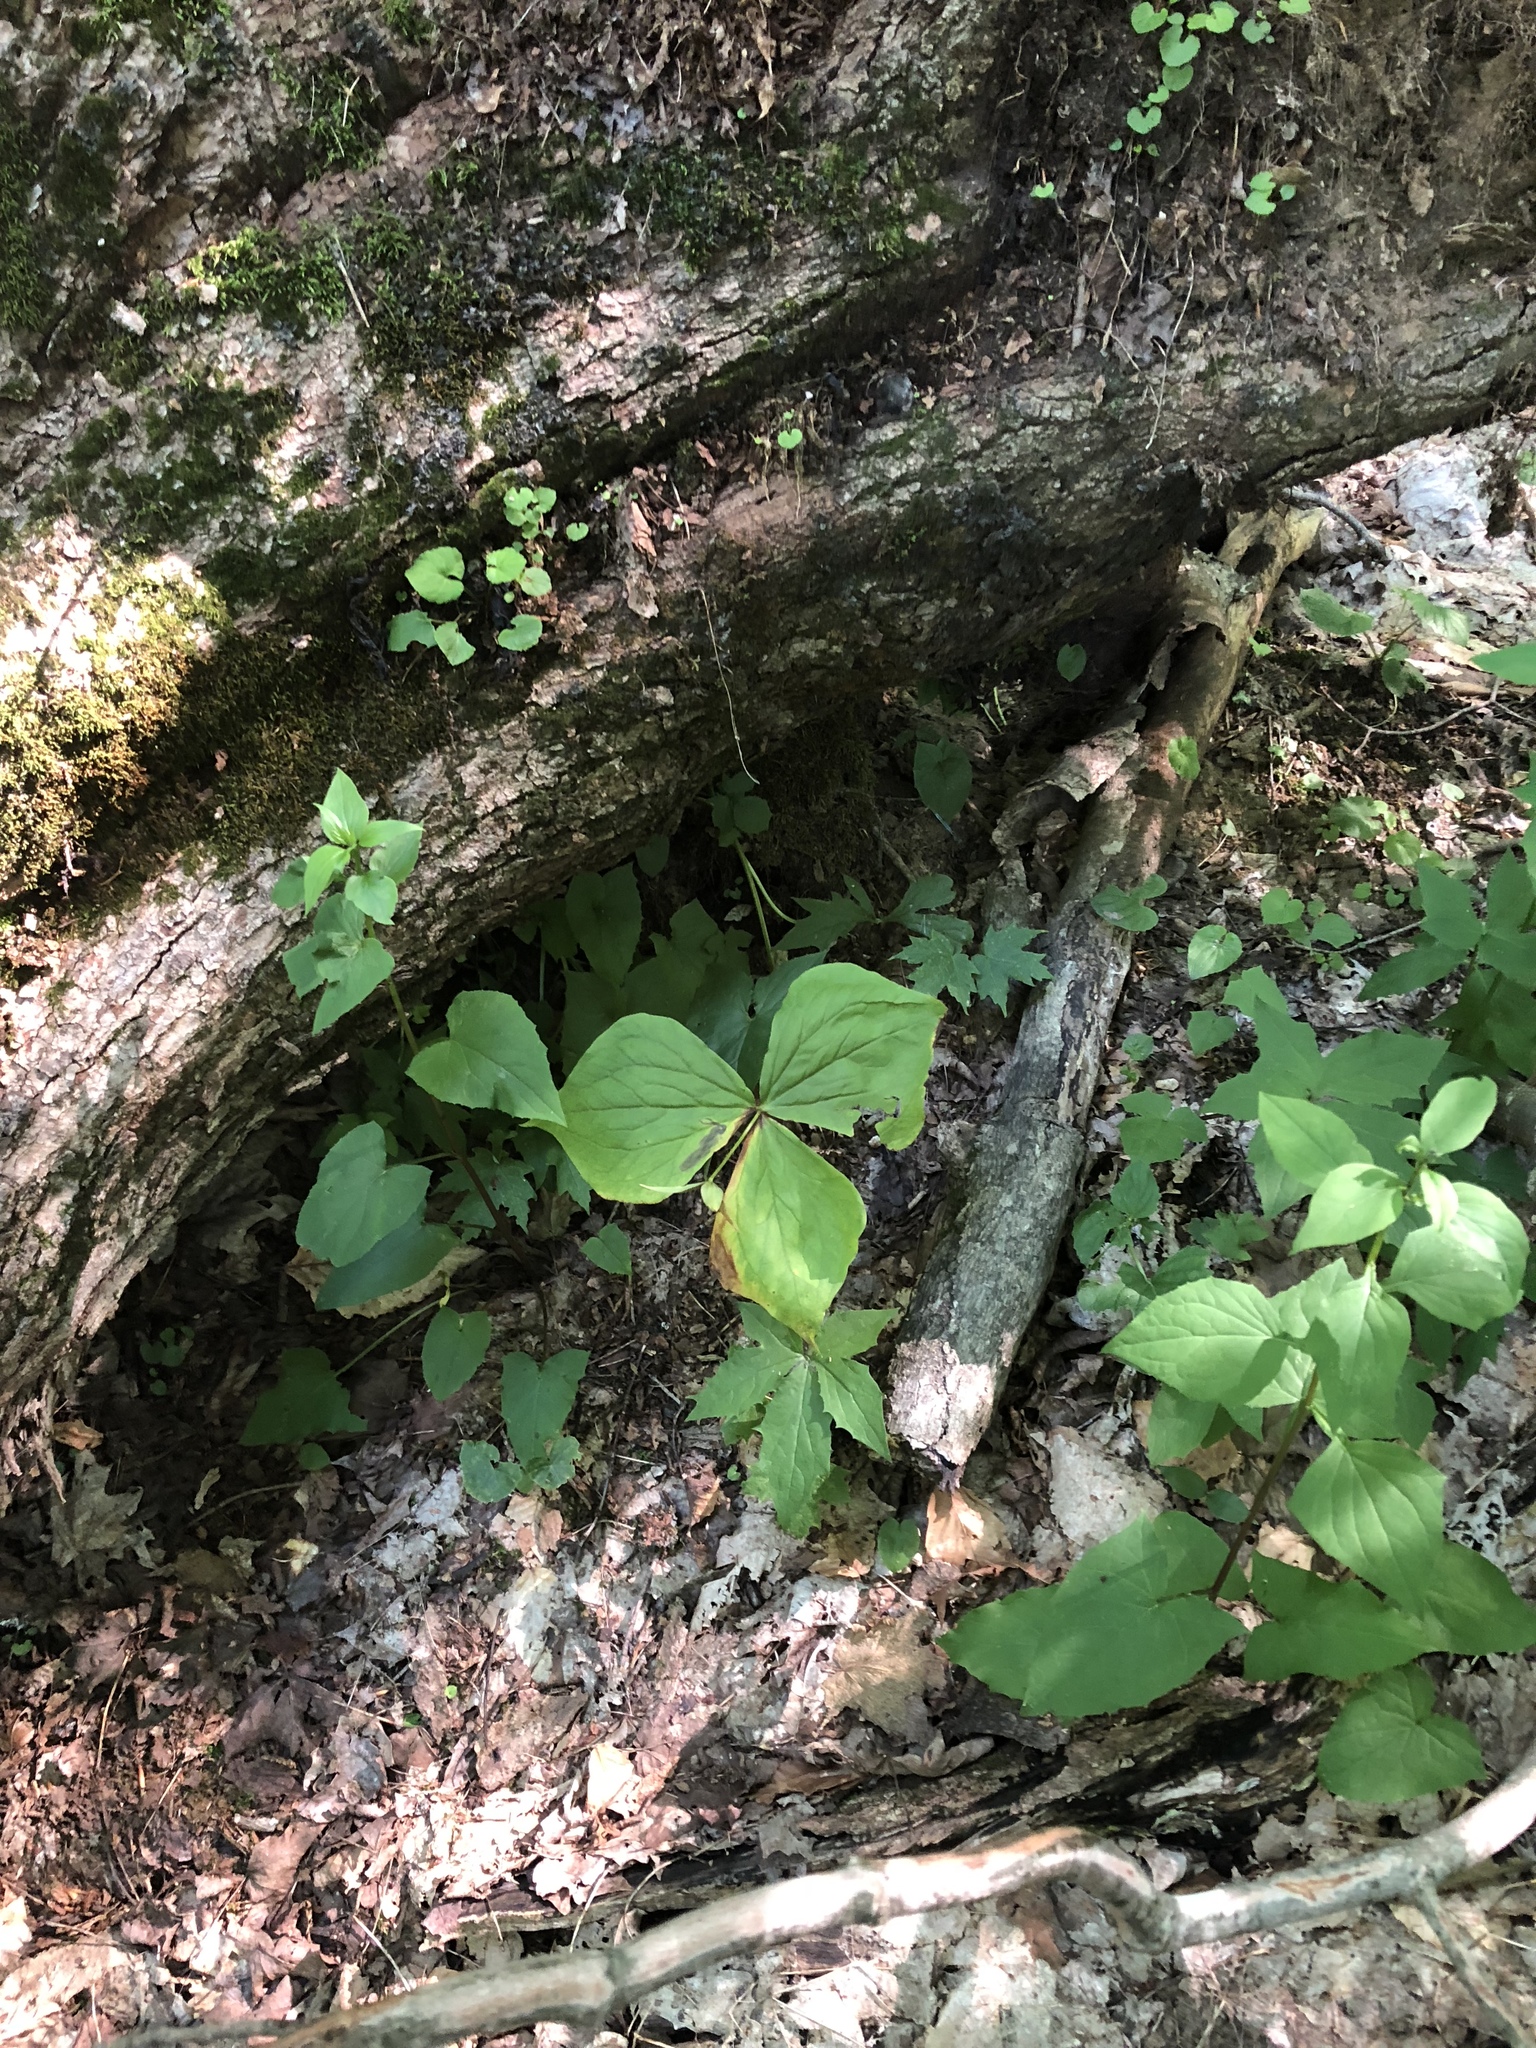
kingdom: Plantae
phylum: Tracheophyta
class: Liliopsida
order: Liliales
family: Melanthiaceae
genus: Trillium
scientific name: Trillium erectum
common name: Purple trillium
